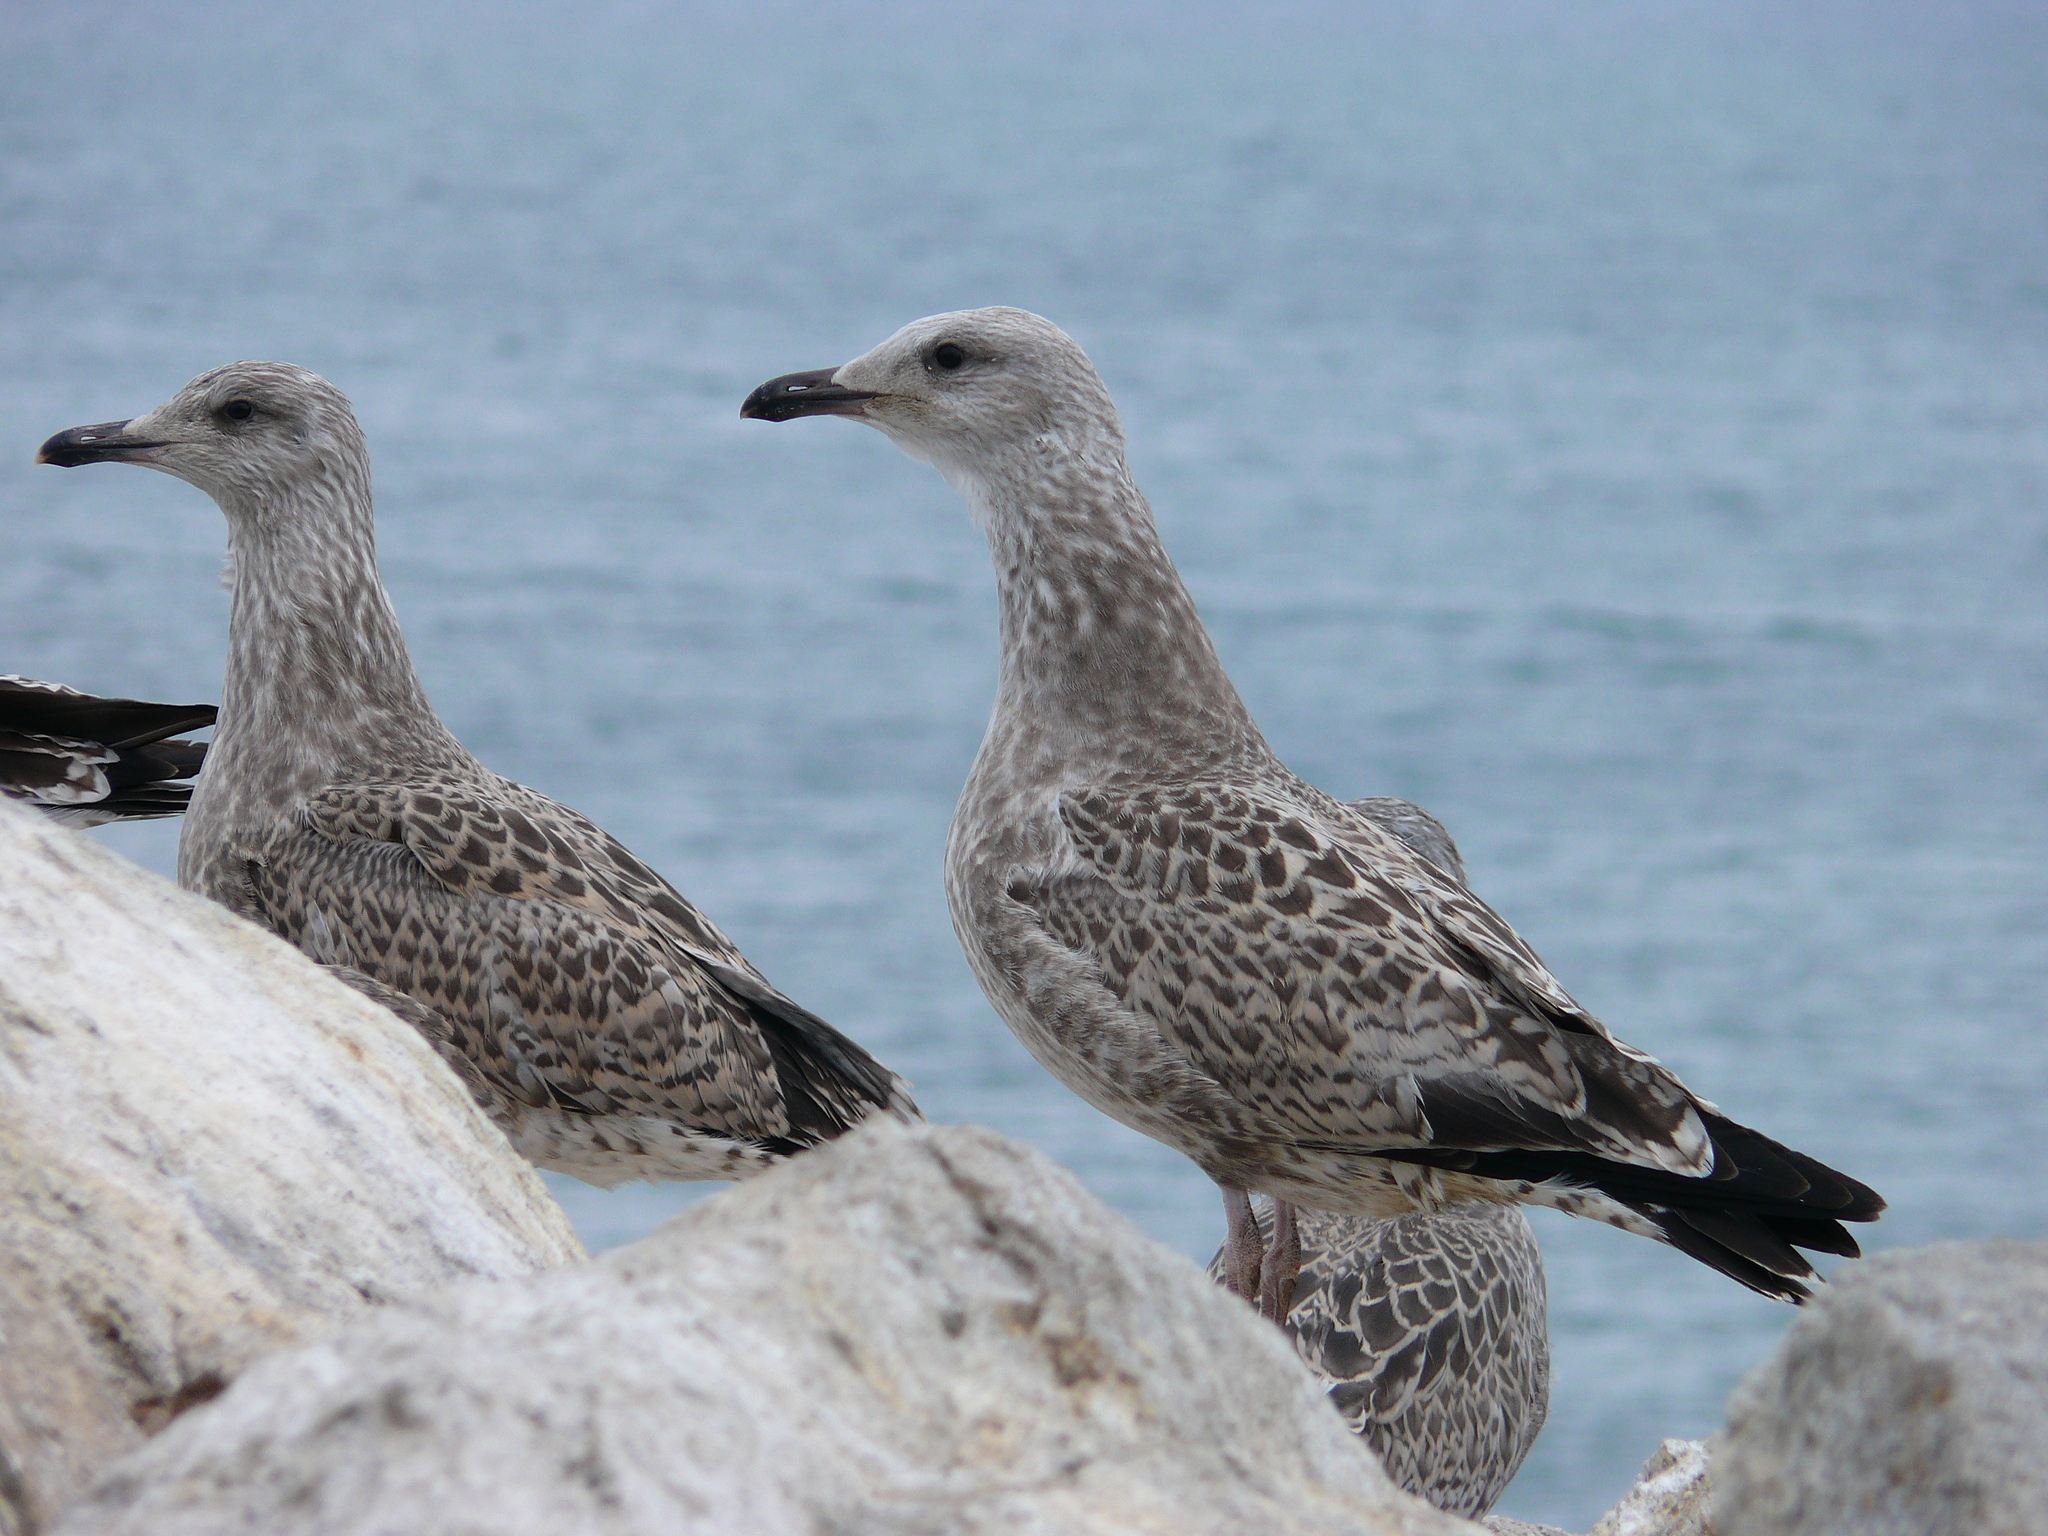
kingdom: Animalia
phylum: Chordata
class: Aves
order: Charadriiformes
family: Laridae
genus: Larus
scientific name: Larus vegae
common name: Vega gull
